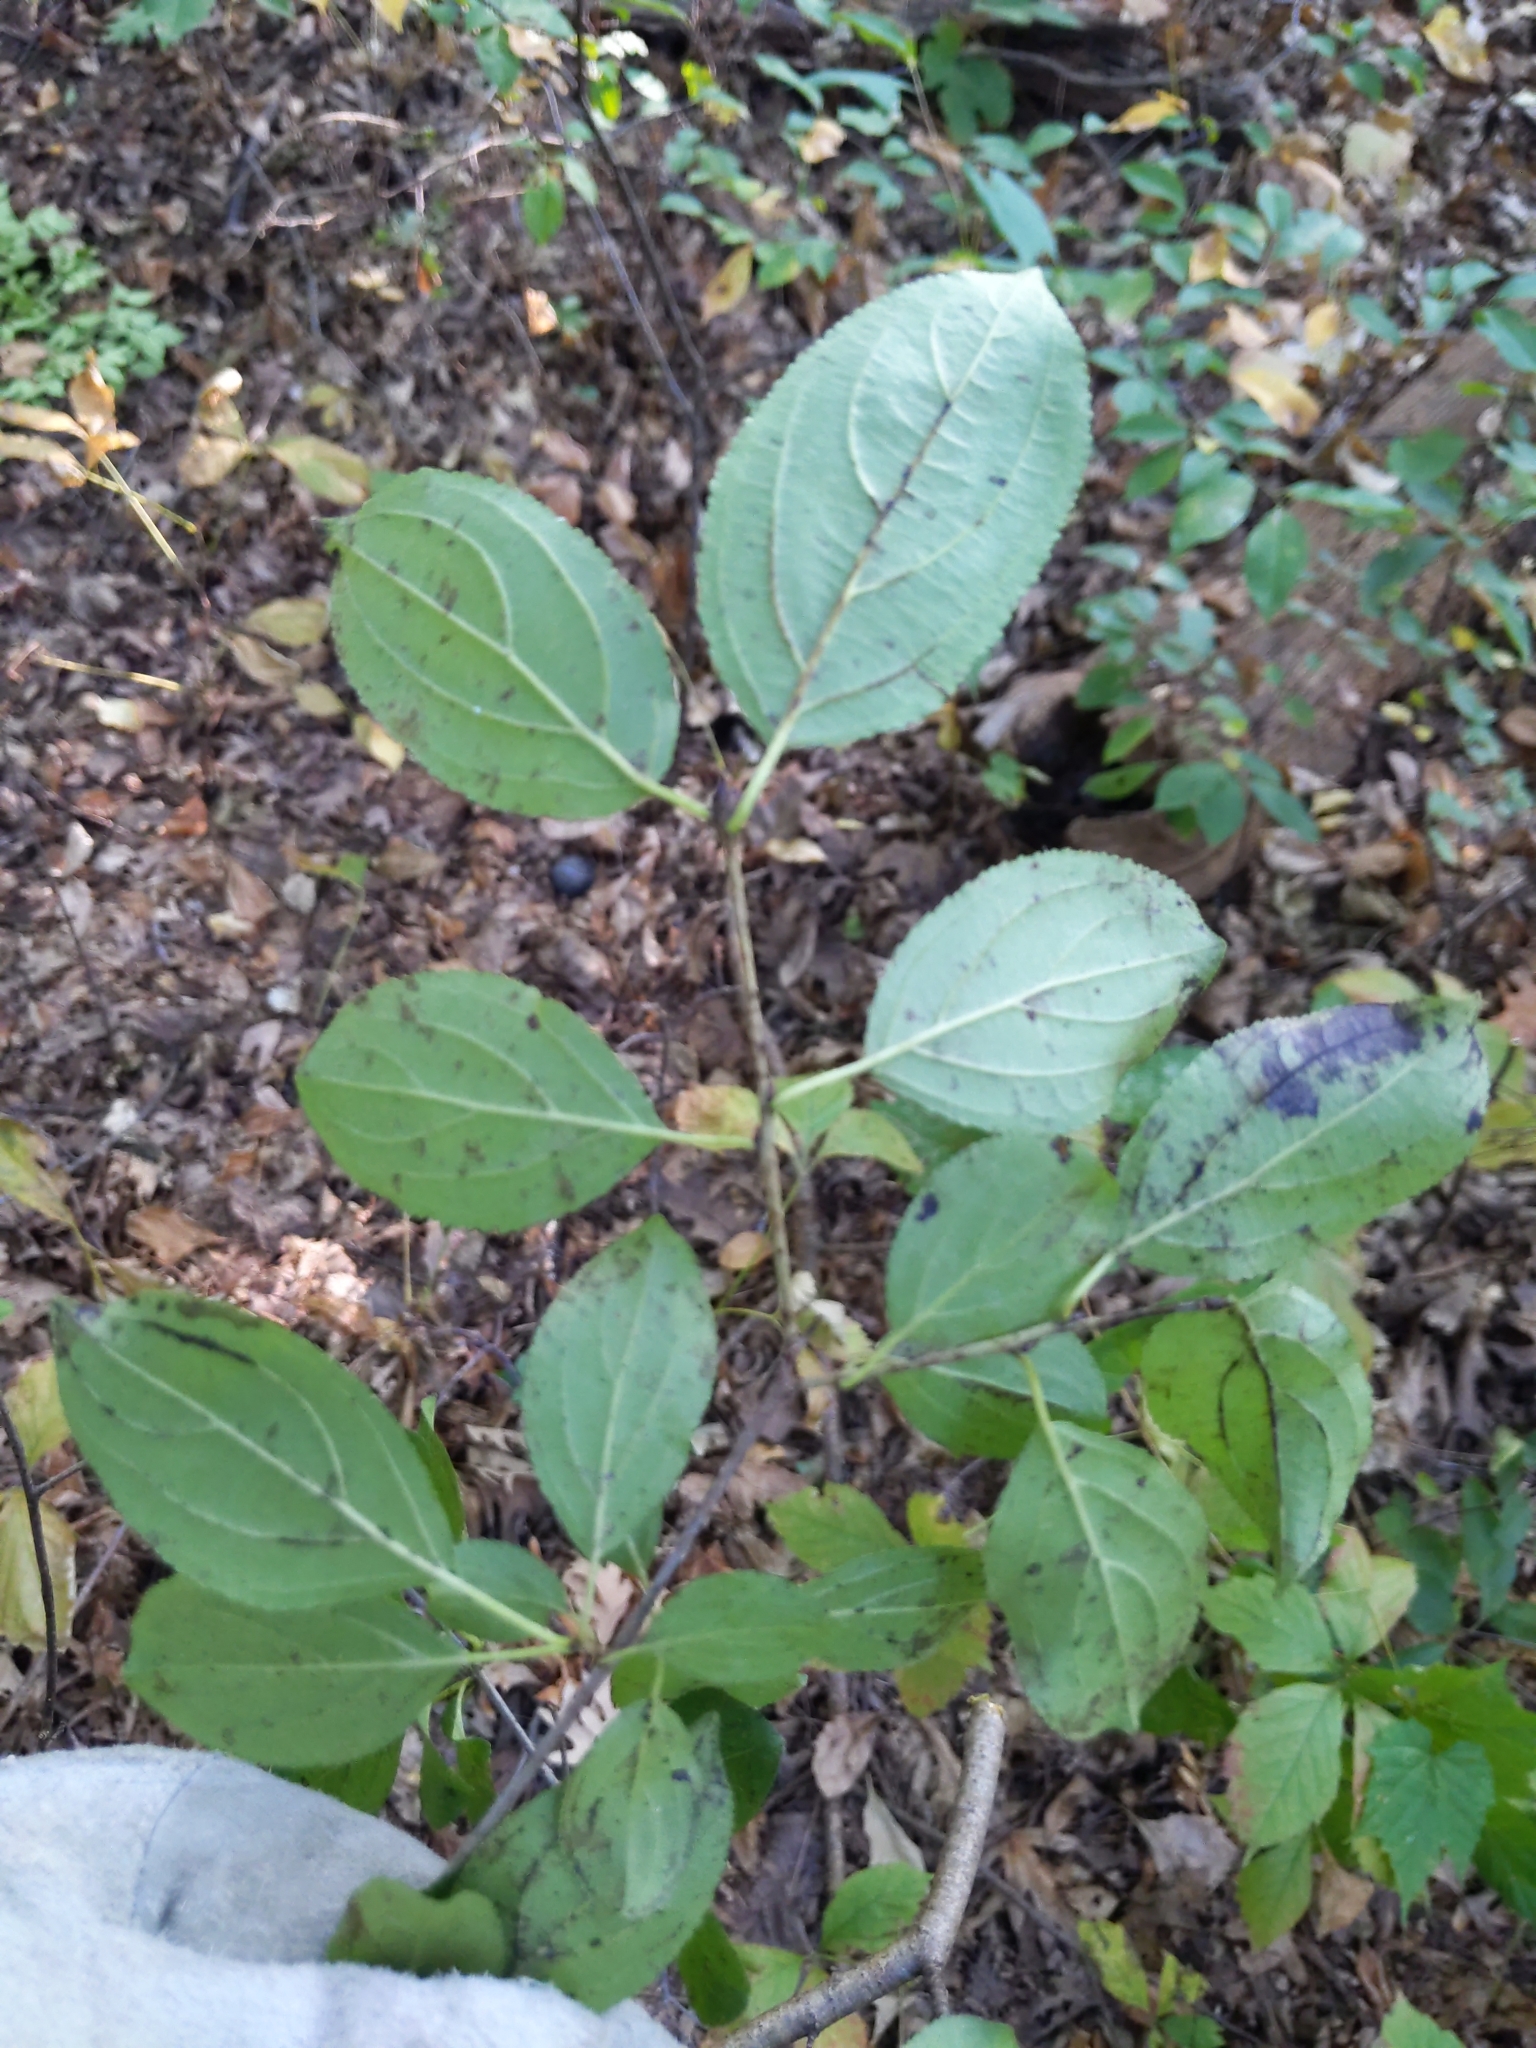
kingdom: Plantae
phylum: Tracheophyta
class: Magnoliopsida
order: Rosales
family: Rhamnaceae
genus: Rhamnus
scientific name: Rhamnus cathartica
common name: Common buckthorn
